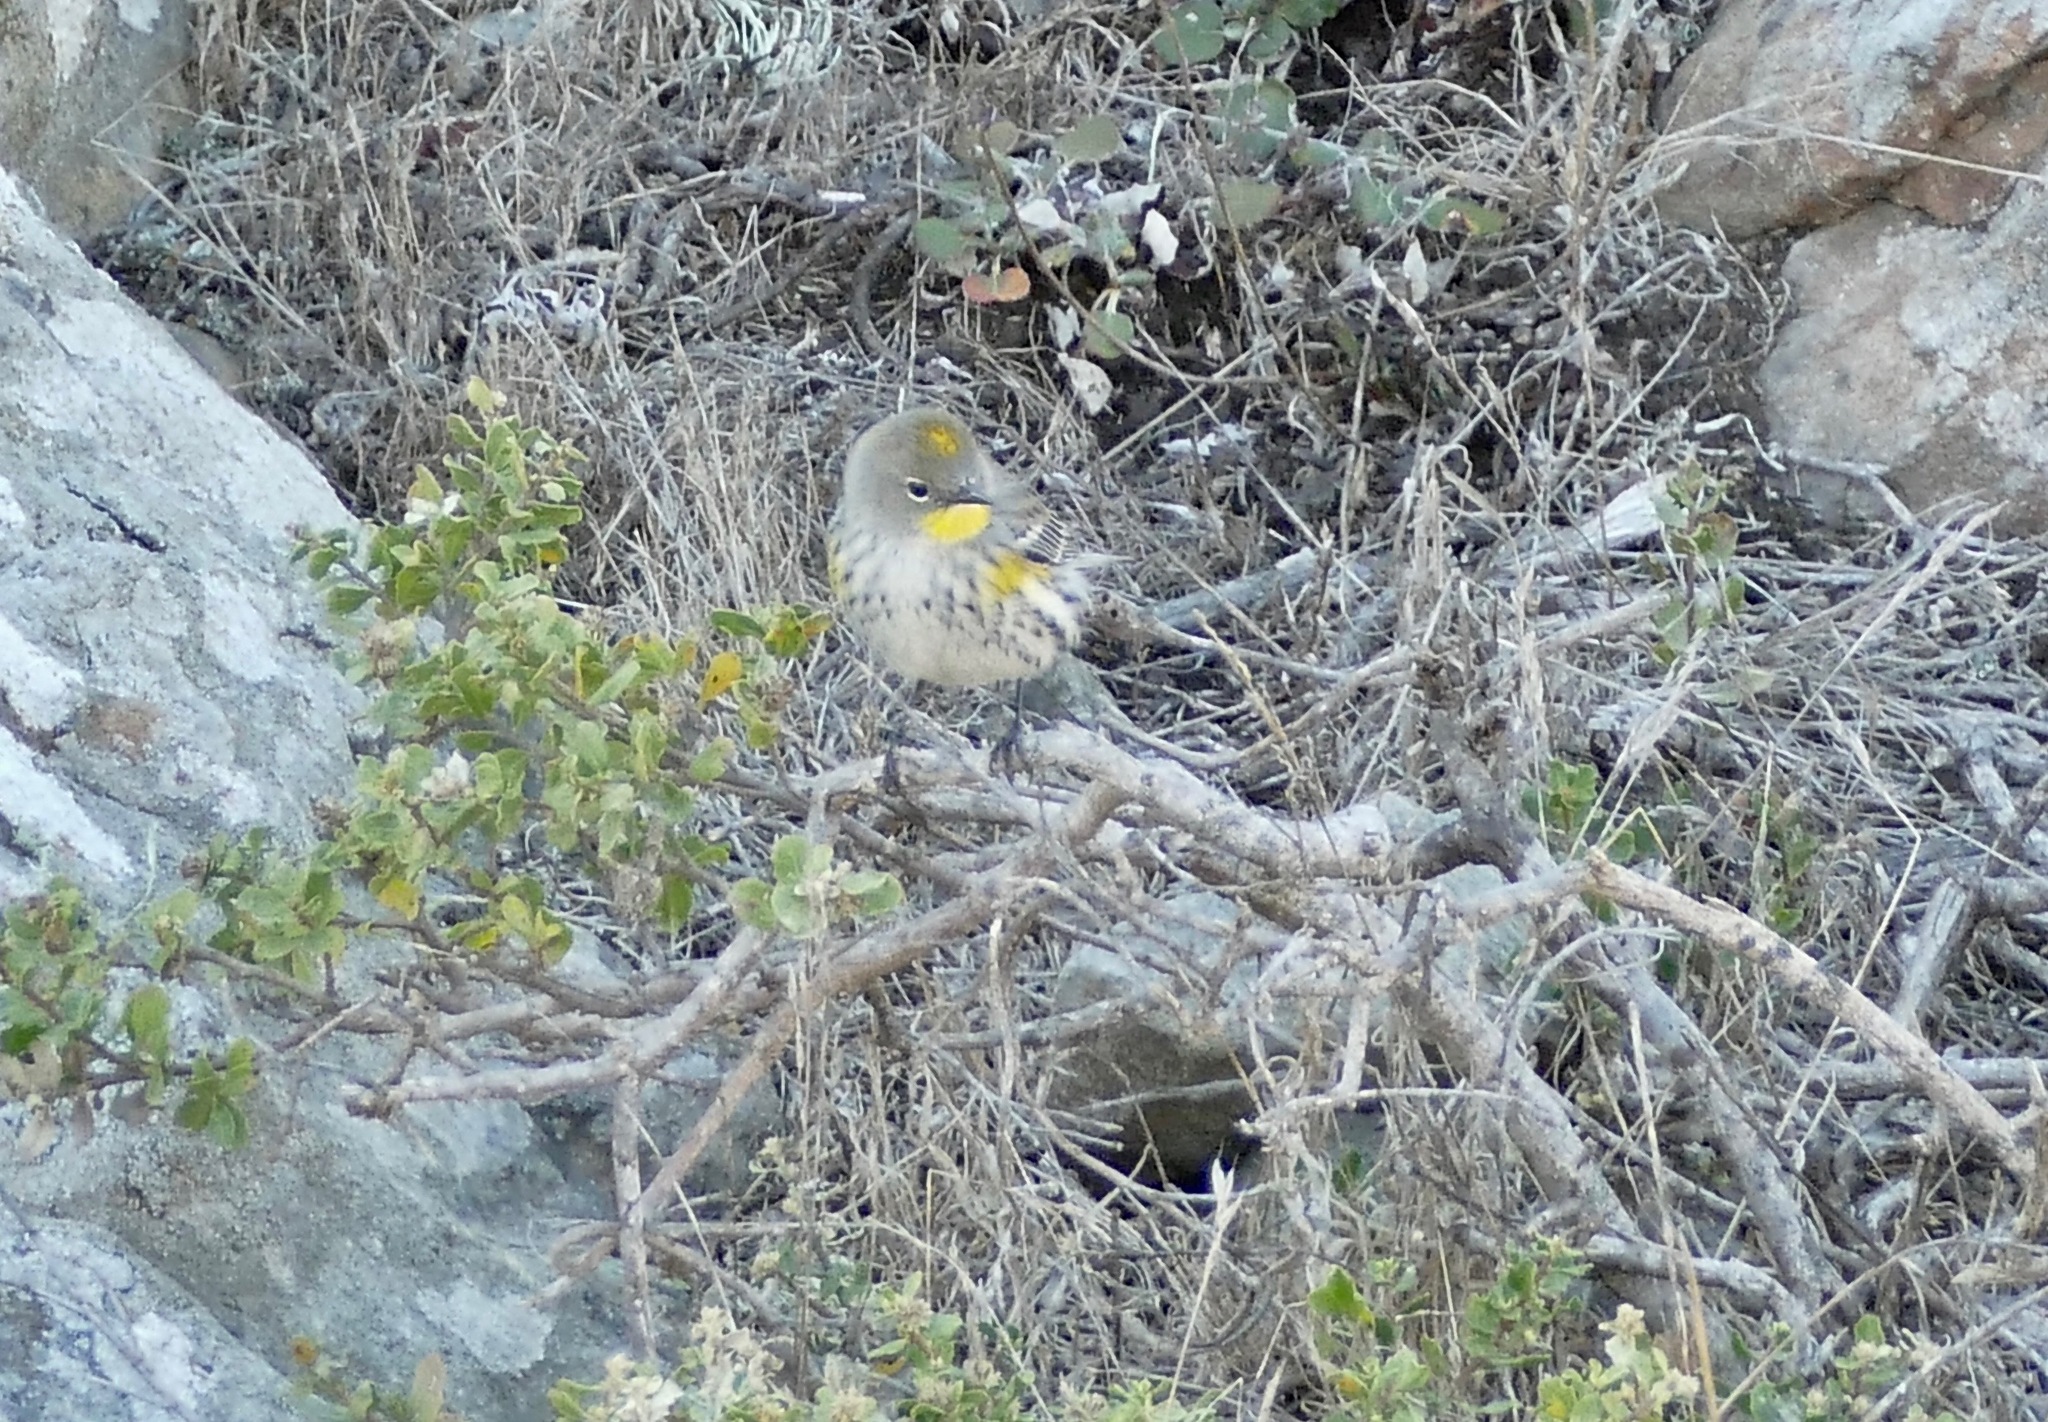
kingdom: Animalia
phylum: Chordata
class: Aves
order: Passeriformes
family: Parulidae
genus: Setophaga
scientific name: Setophaga coronata
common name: Myrtle warbler
